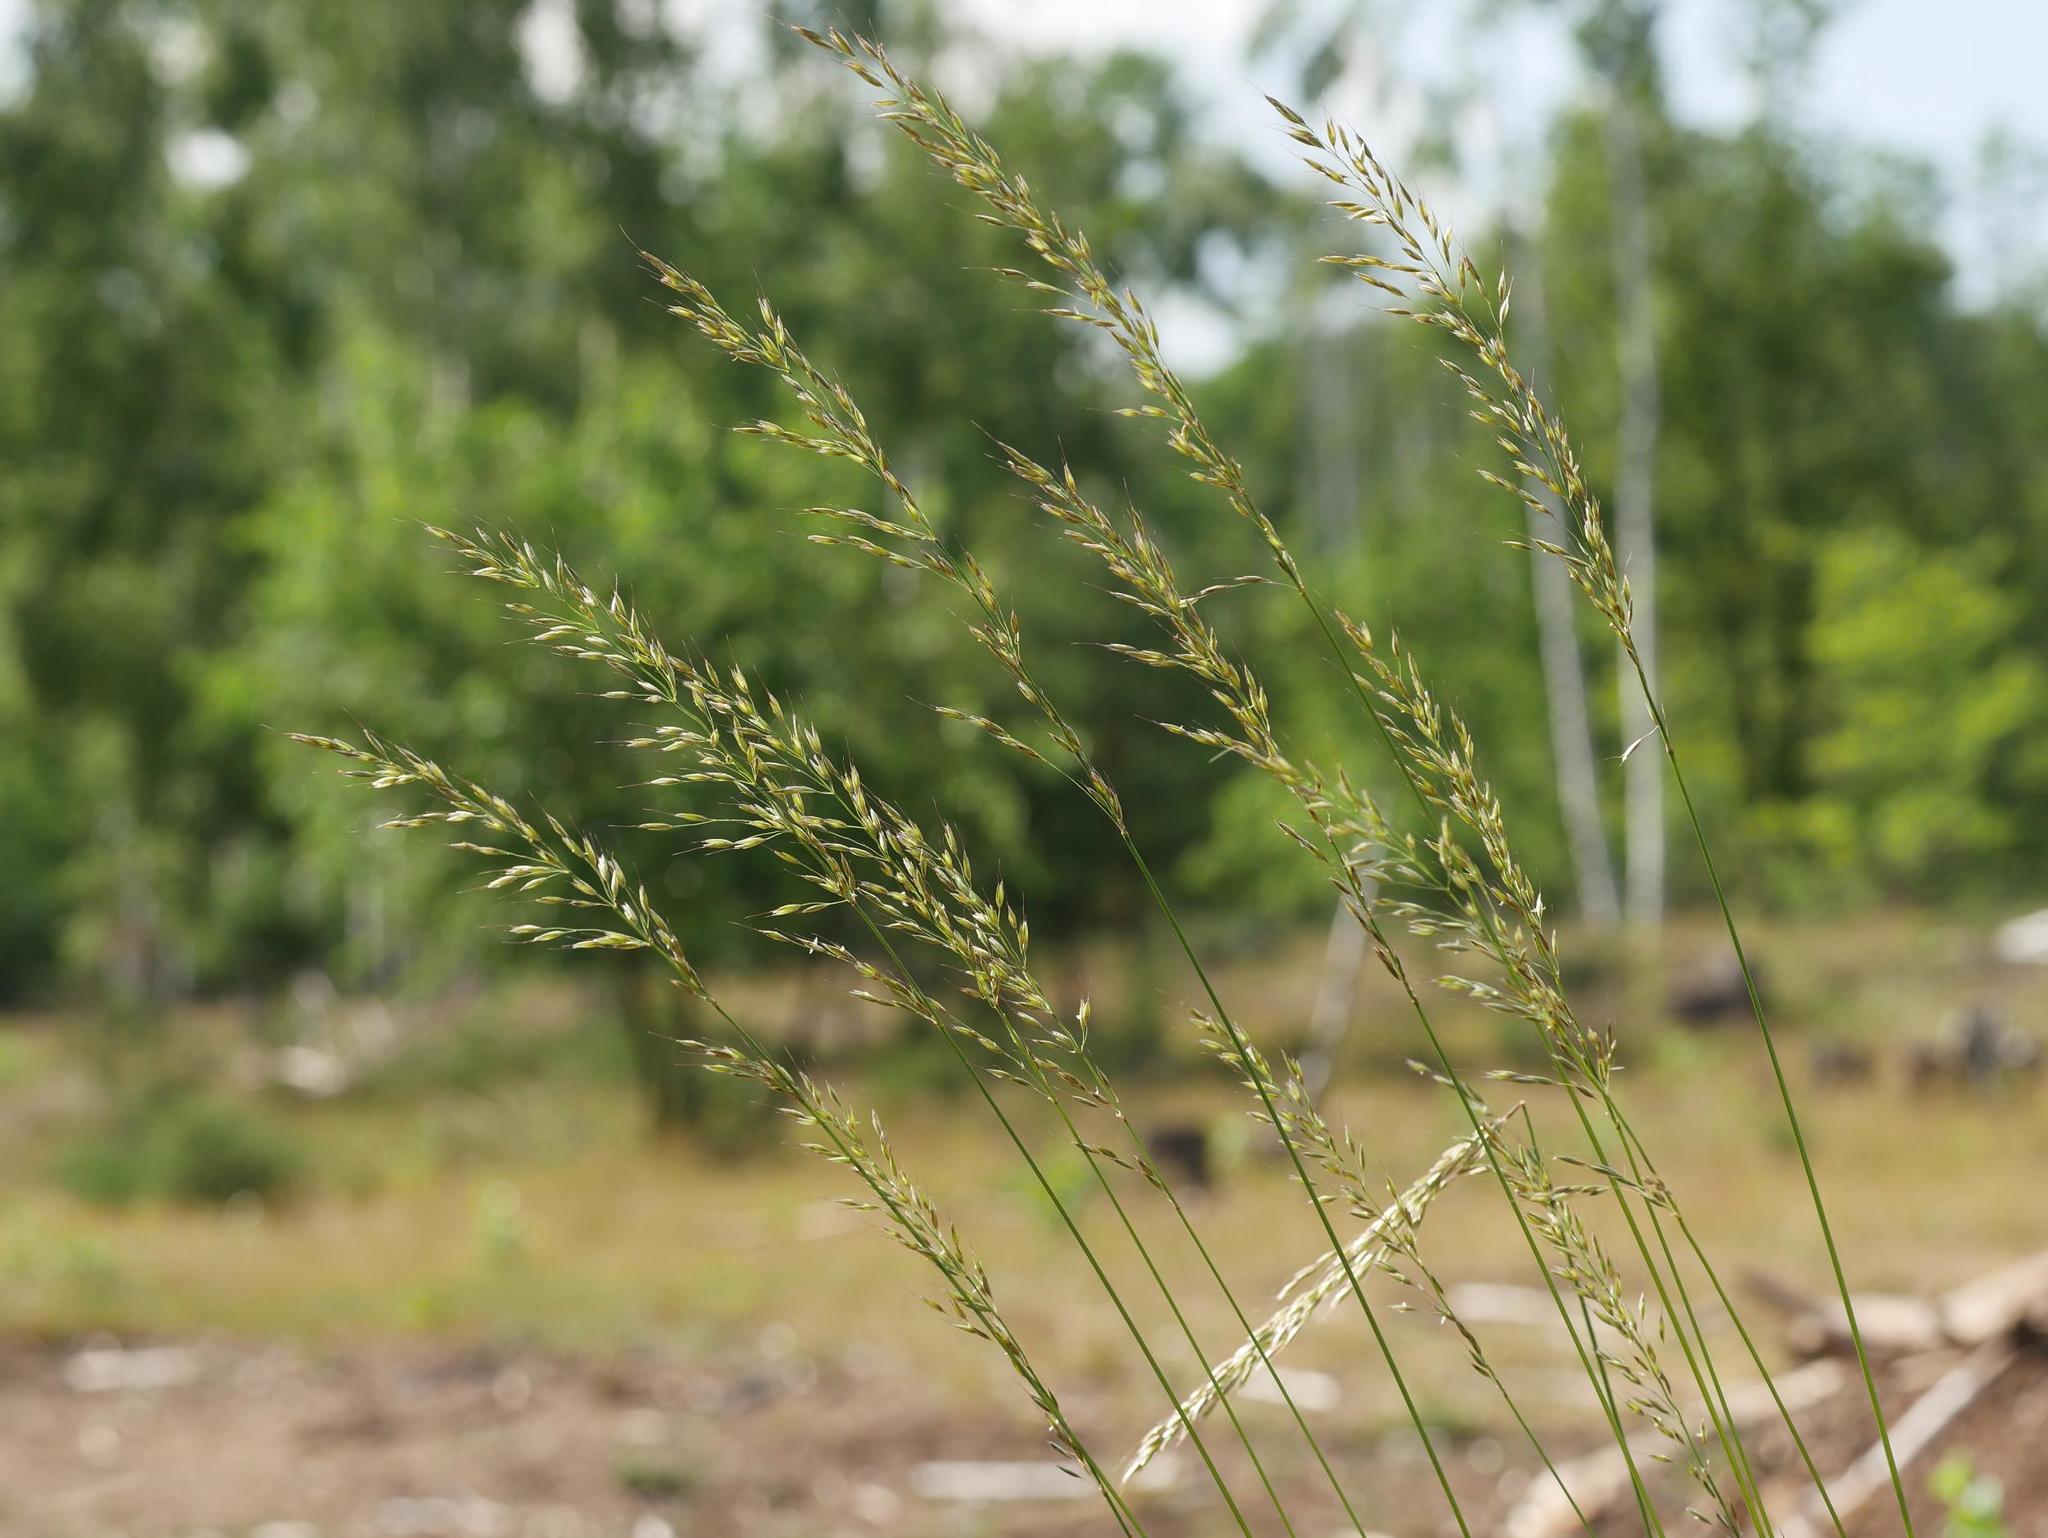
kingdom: Plantae
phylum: Tracheophyta
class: Liliopsida
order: Poales
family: Poaceae
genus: Arrhenatherum
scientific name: Arrhenatherum elatius
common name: Tall oatgrass
